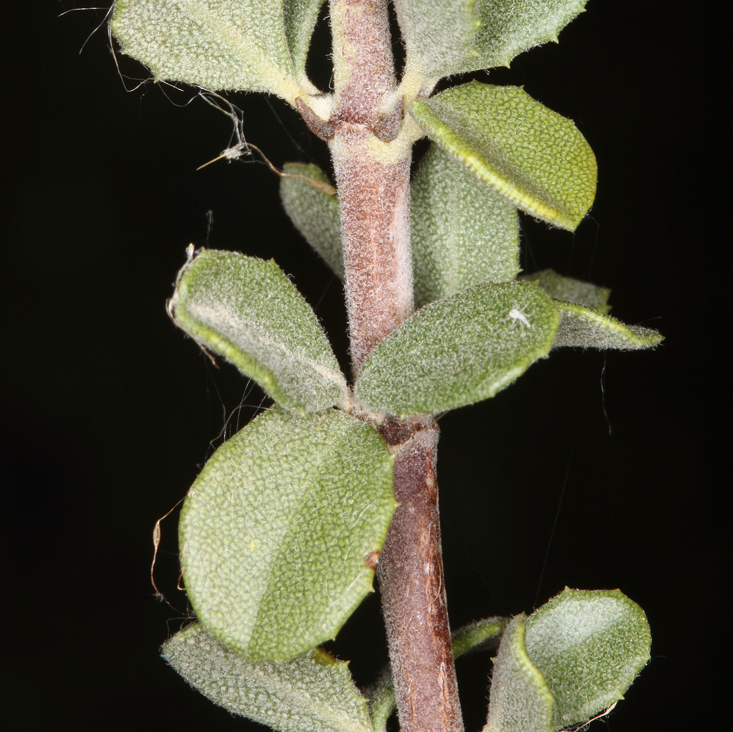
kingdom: Plantae
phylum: Tracheophyta
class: Magnoliopsida
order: Rosales
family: Rhamnaceae
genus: Ceanothus
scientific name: Ceanothus pauciflorus
